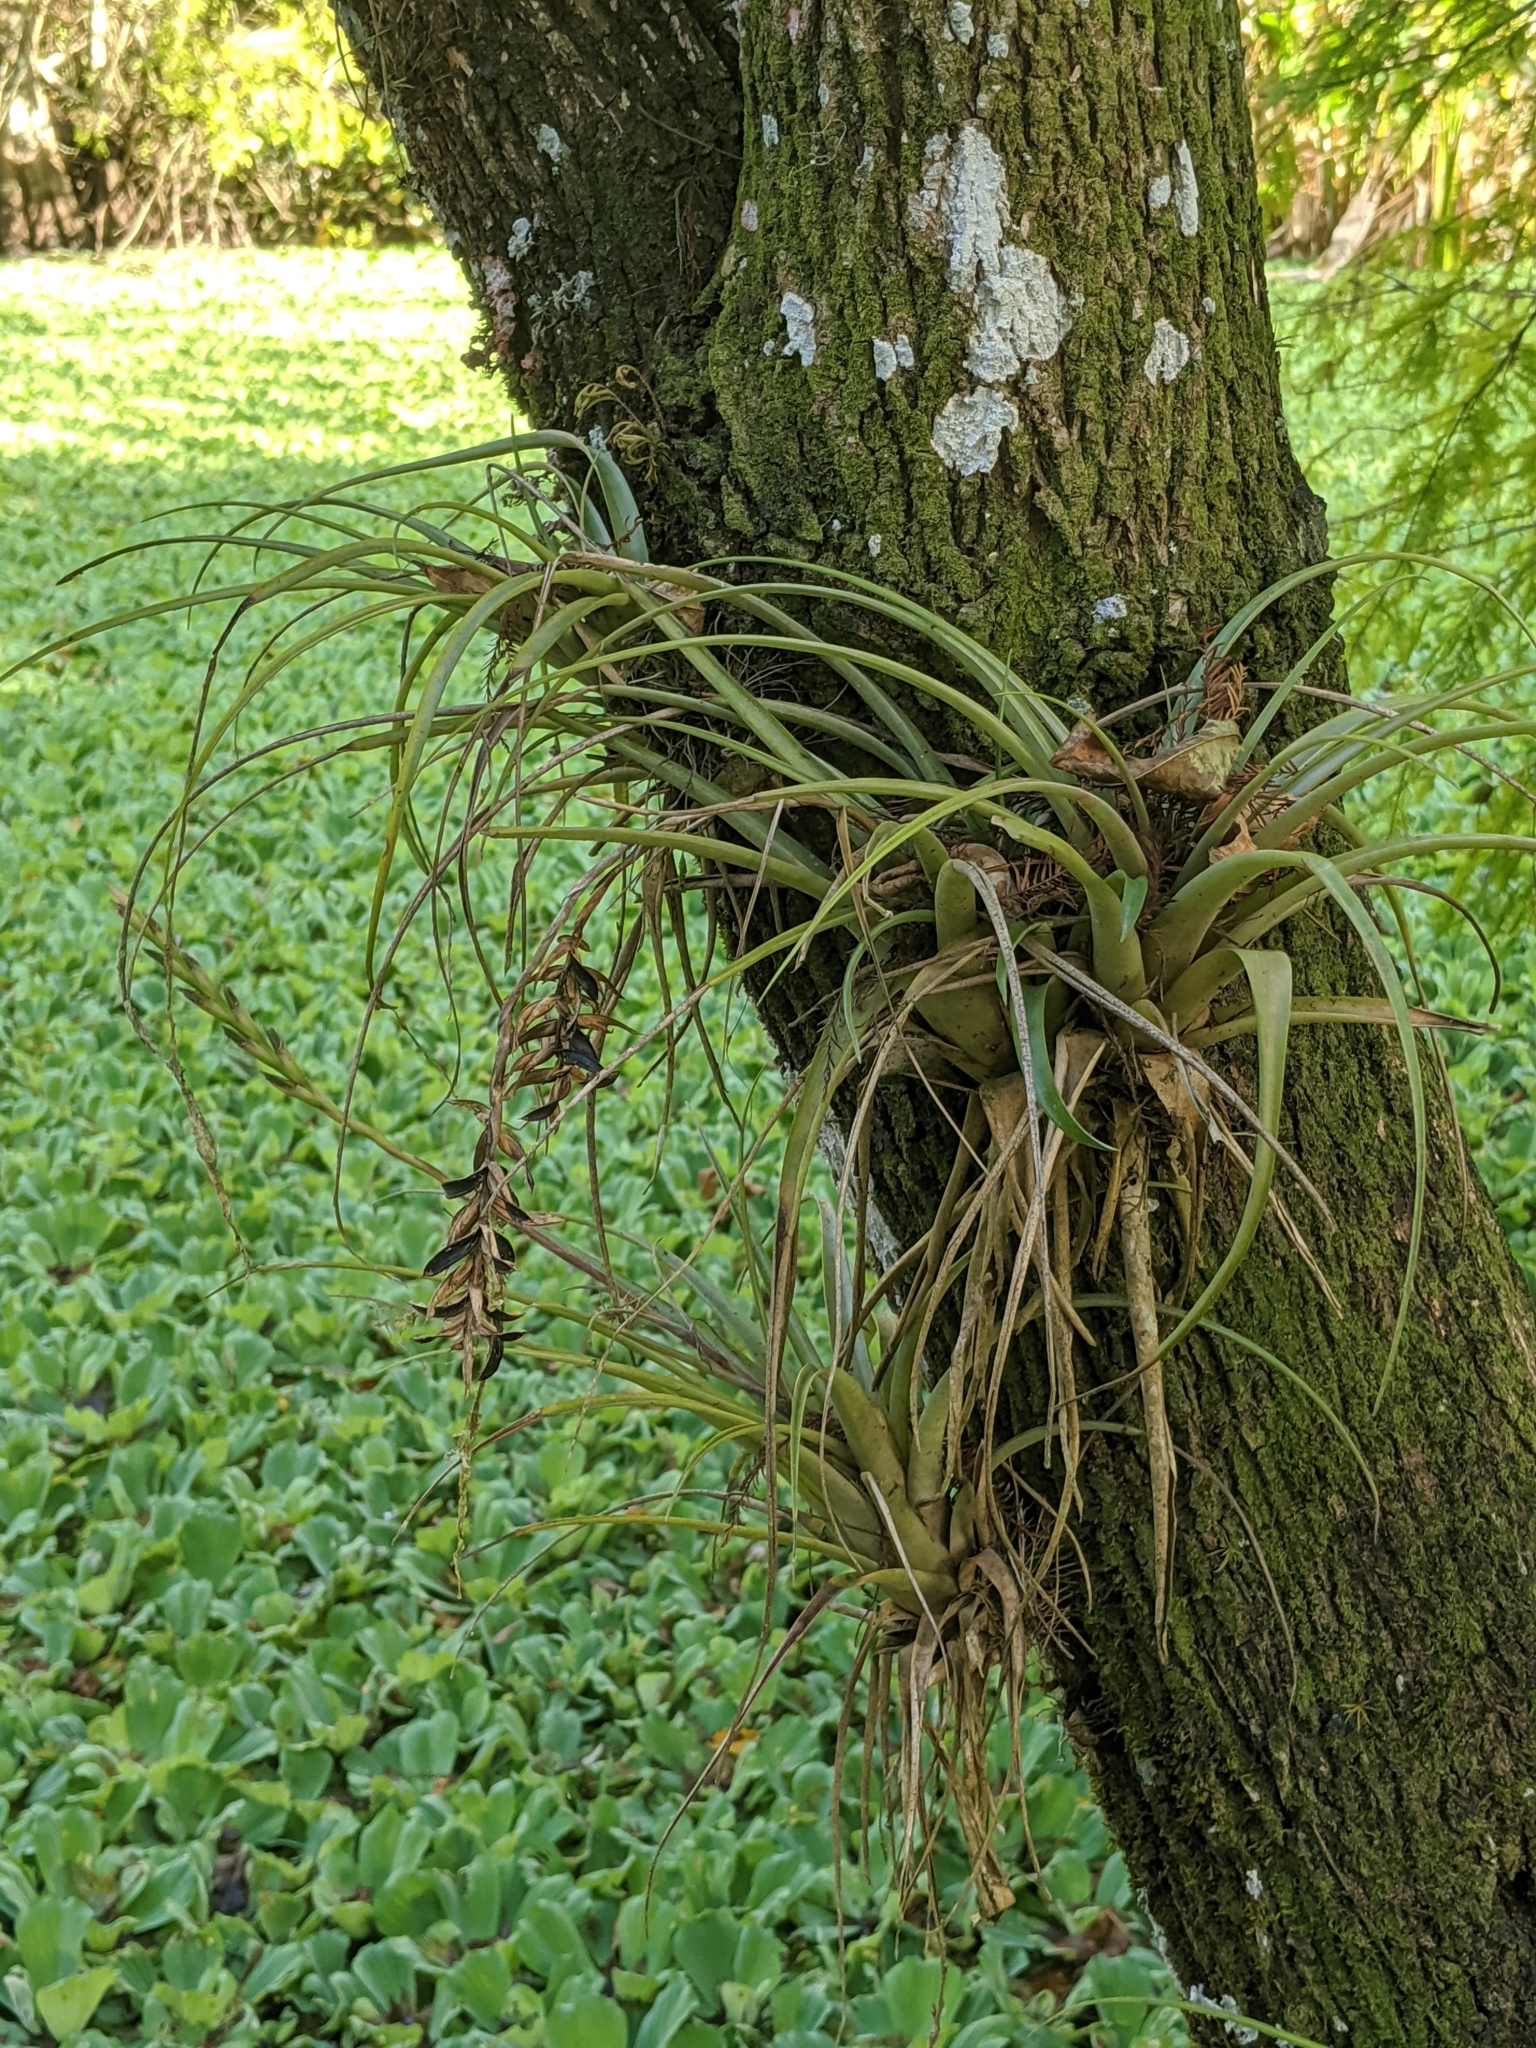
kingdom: Plantae
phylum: Tracheophyta
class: Liliopsida
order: Poales
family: Bromeliaceae
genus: Tillandsia
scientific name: Tillandsia variabilis
